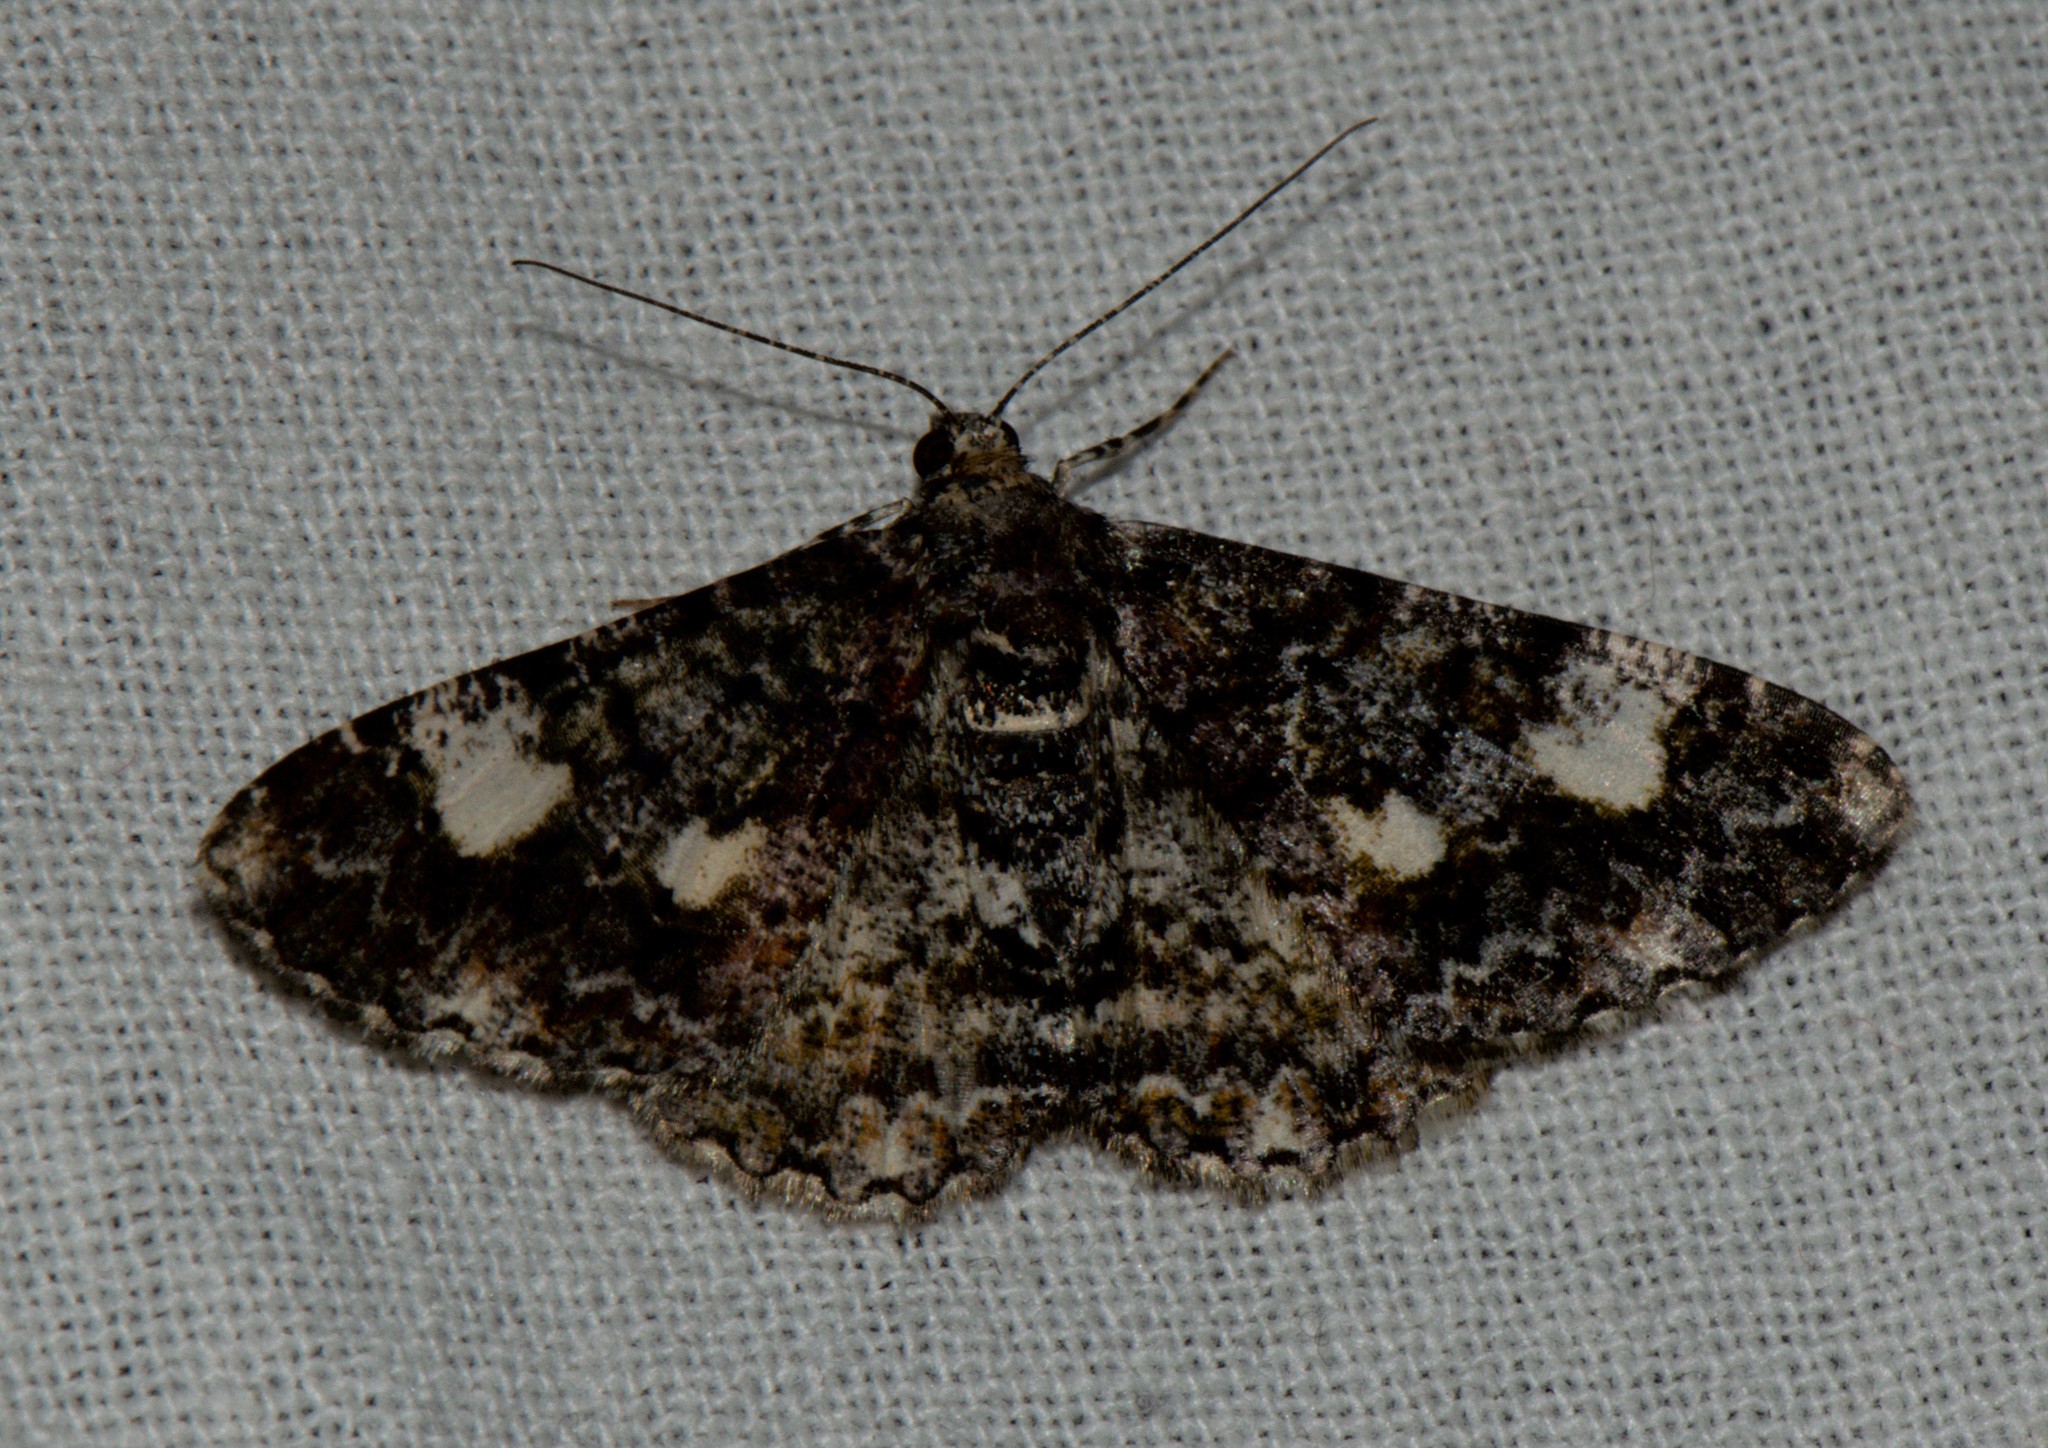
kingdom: Animalia
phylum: Arthropoda
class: Insecta
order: Lepidoptera
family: Geometridae
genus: Alcis
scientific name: Alcis variegata
